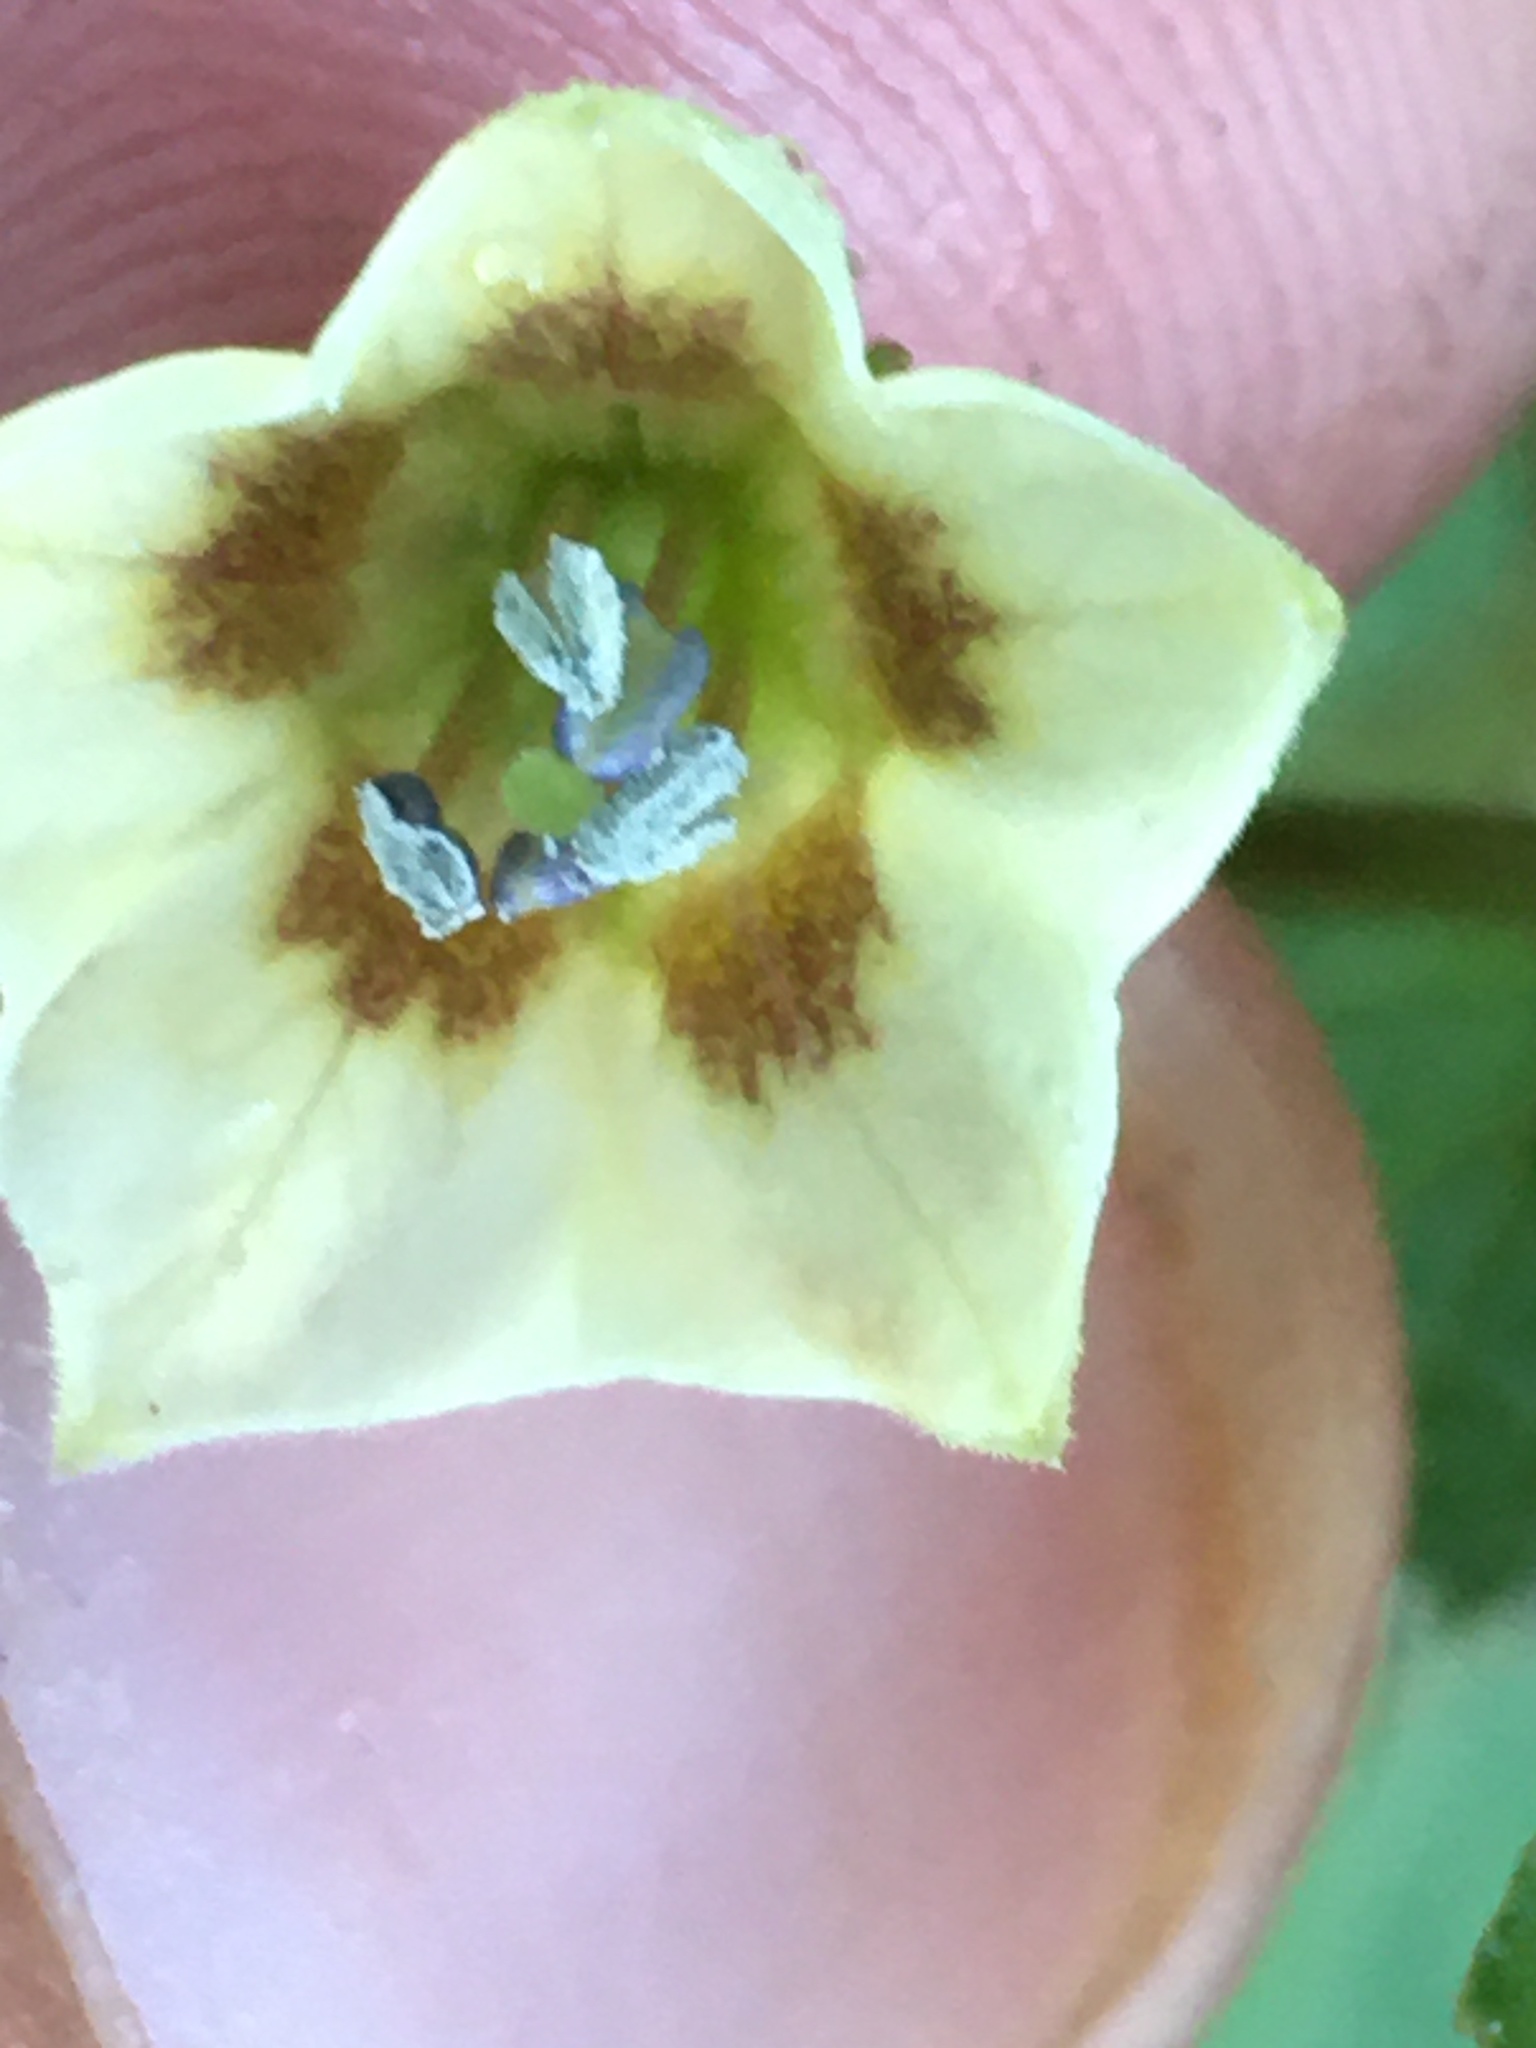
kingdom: Plantae
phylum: Tracheophyta
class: Magnoliopsida
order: Solanales
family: Solanaceae
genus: Physalis
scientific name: Physalis angulata
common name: Angular winter-cherry
